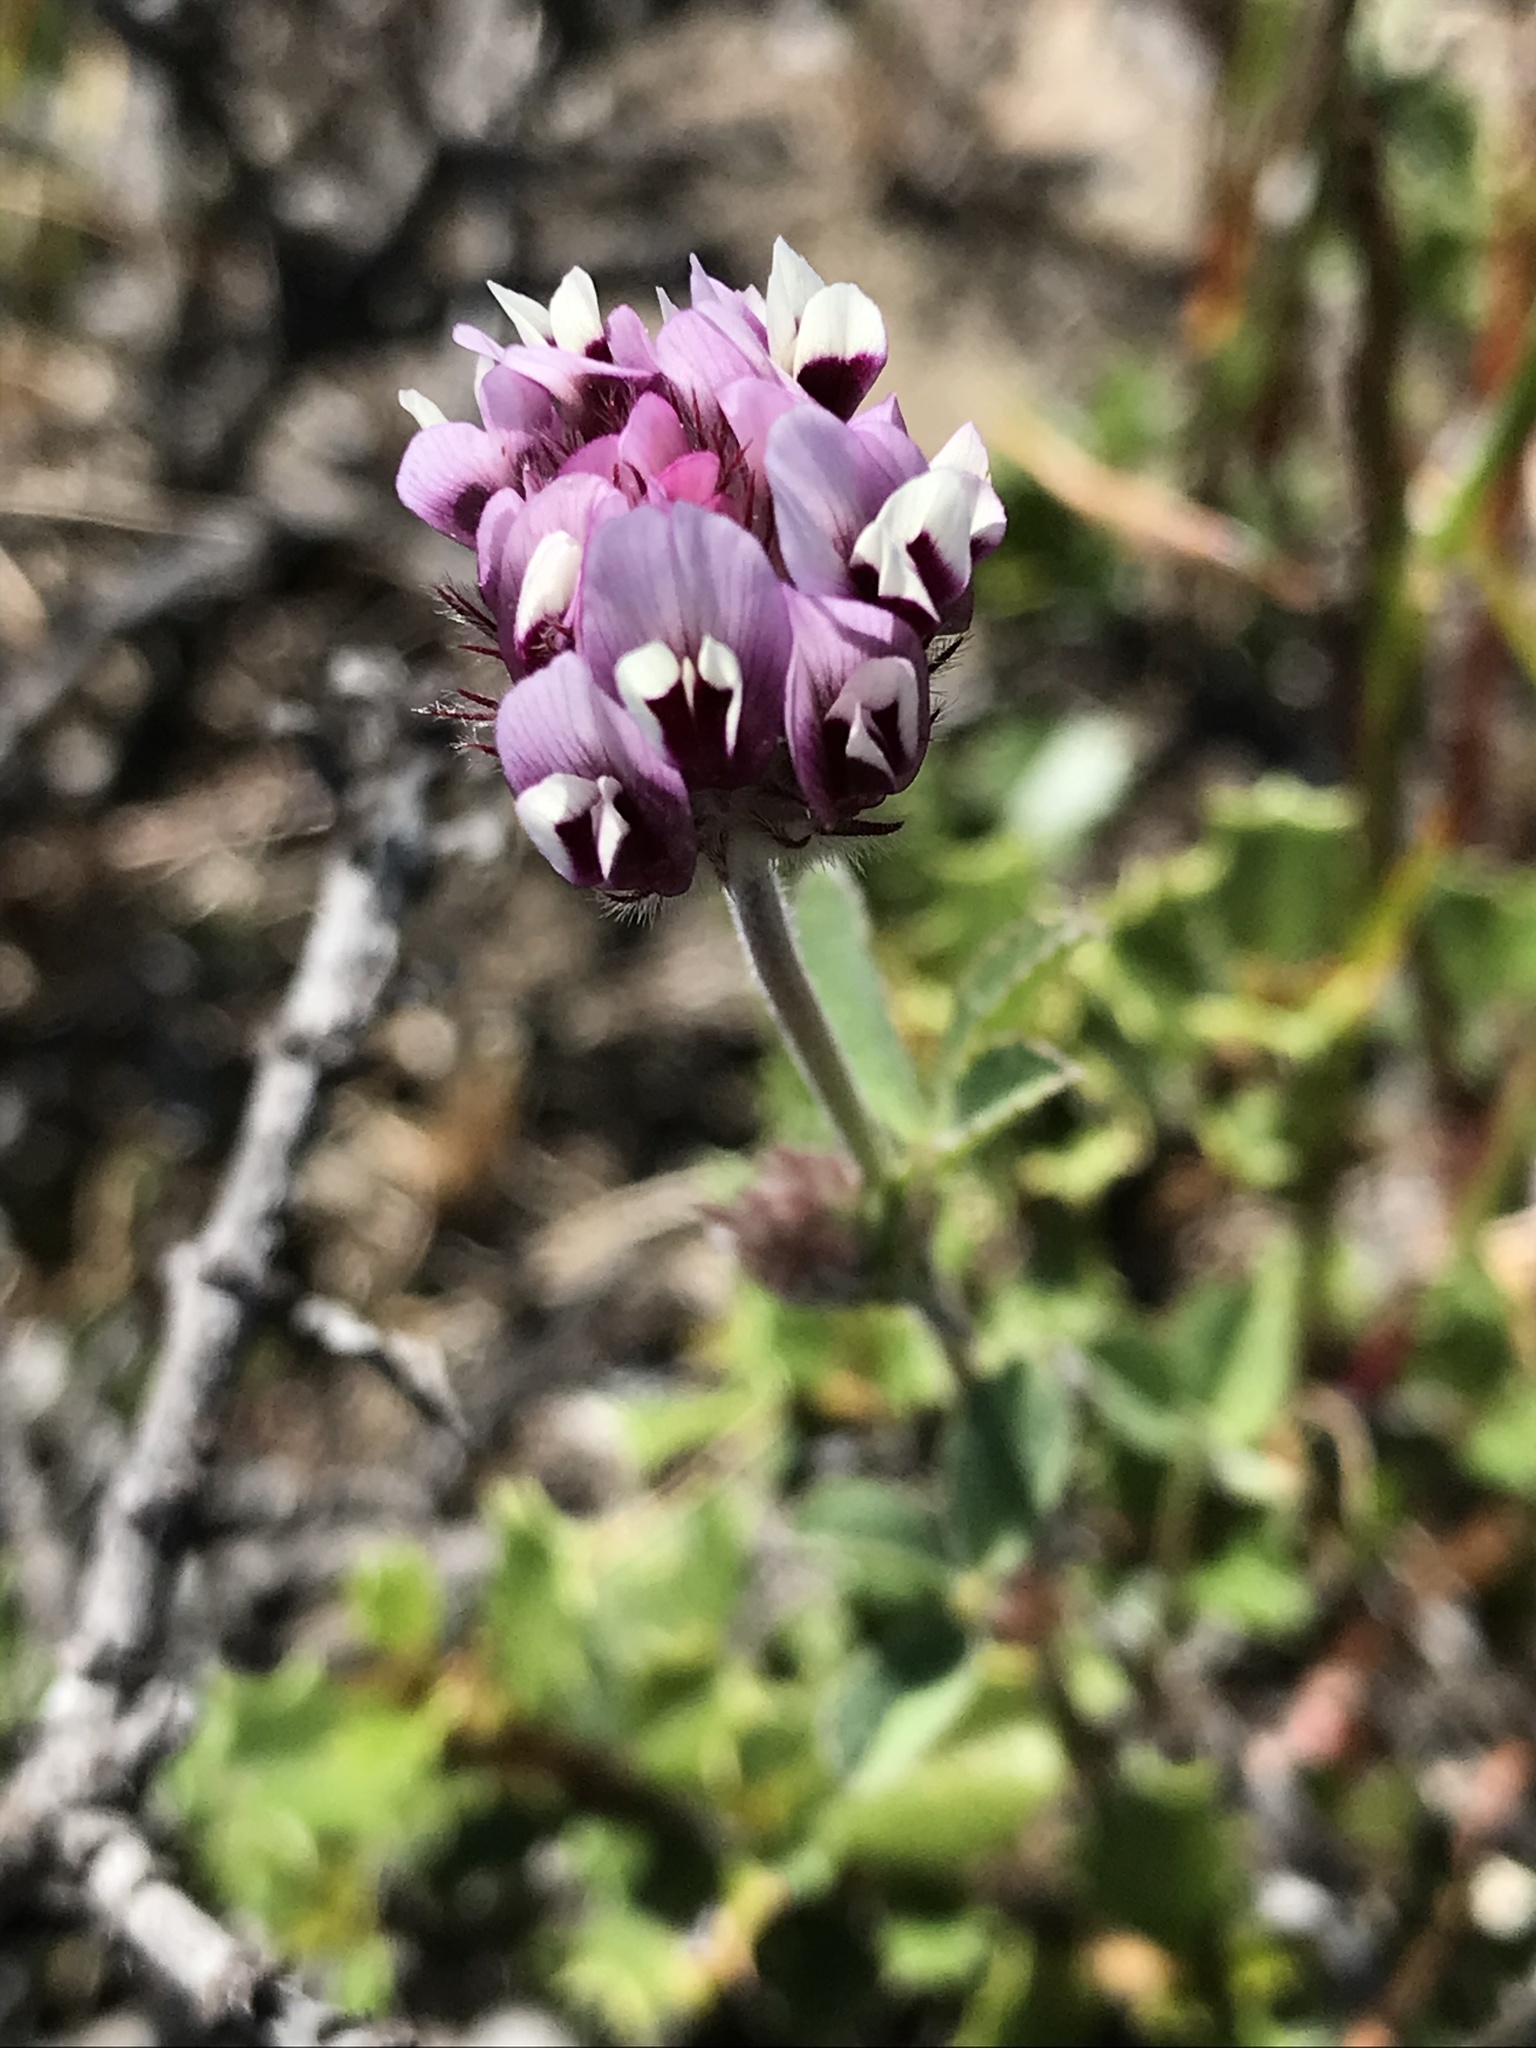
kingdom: Plantae
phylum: Tracheophyta
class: Magnoliopsida
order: Fabales
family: Fabaceae
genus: Trifolium
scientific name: Trifolium dichotomum
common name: Branched indian clover
